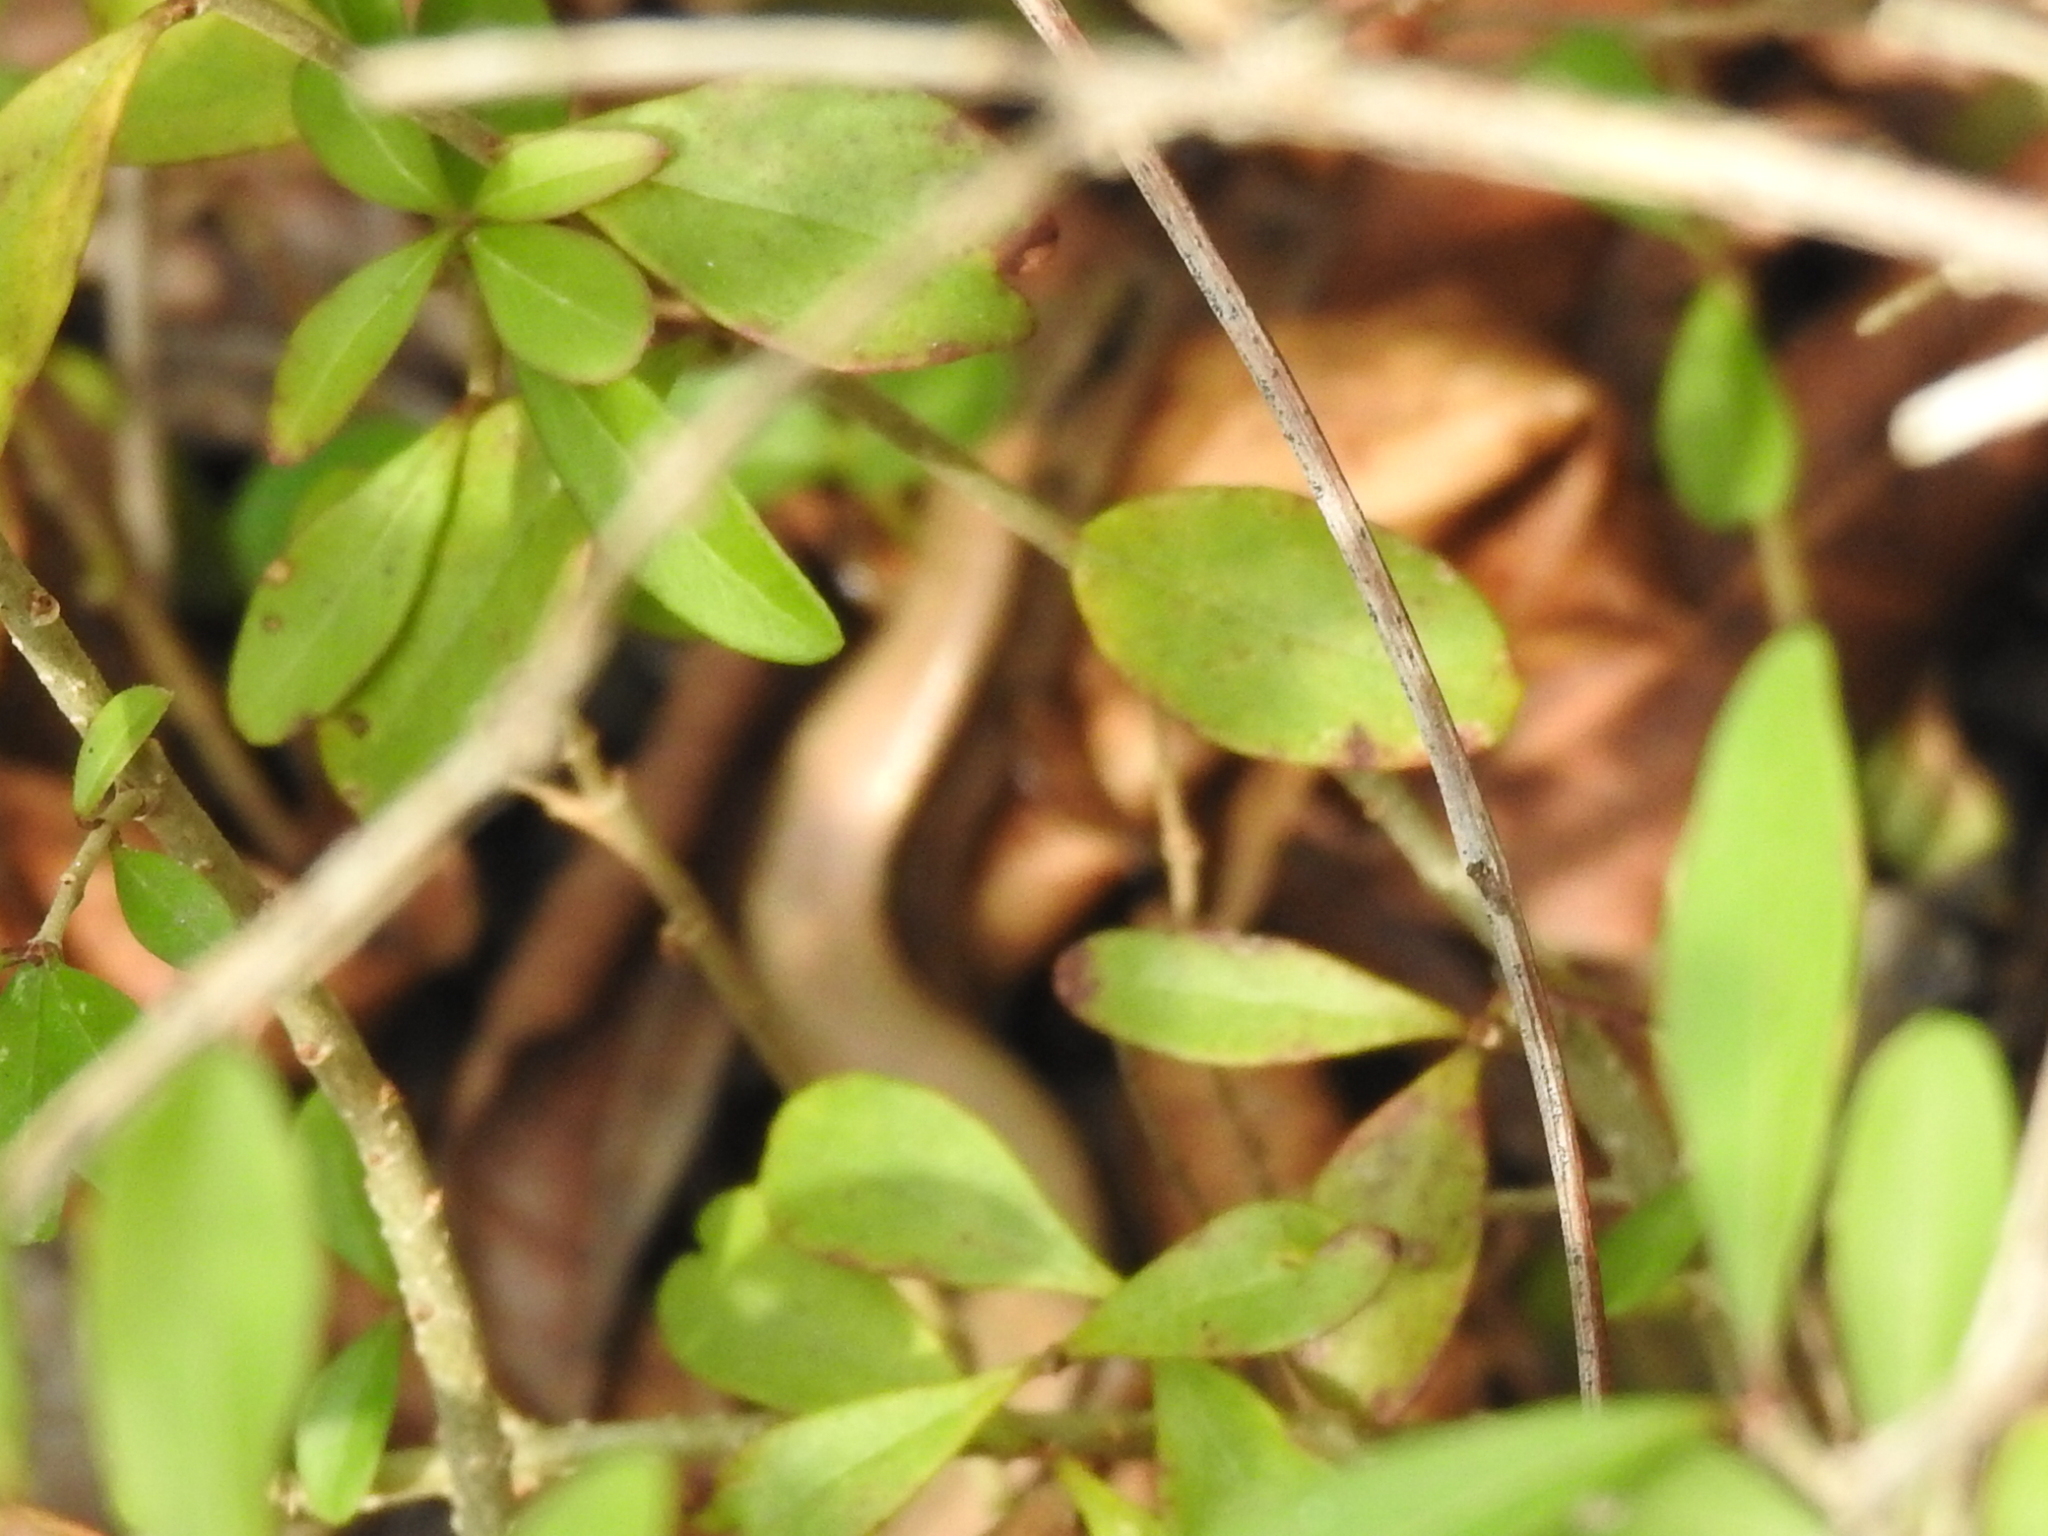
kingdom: Animalia
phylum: Chordata
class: Squamata
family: Scincidae
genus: Scincella
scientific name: Scincella lateralis
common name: Ground skink
